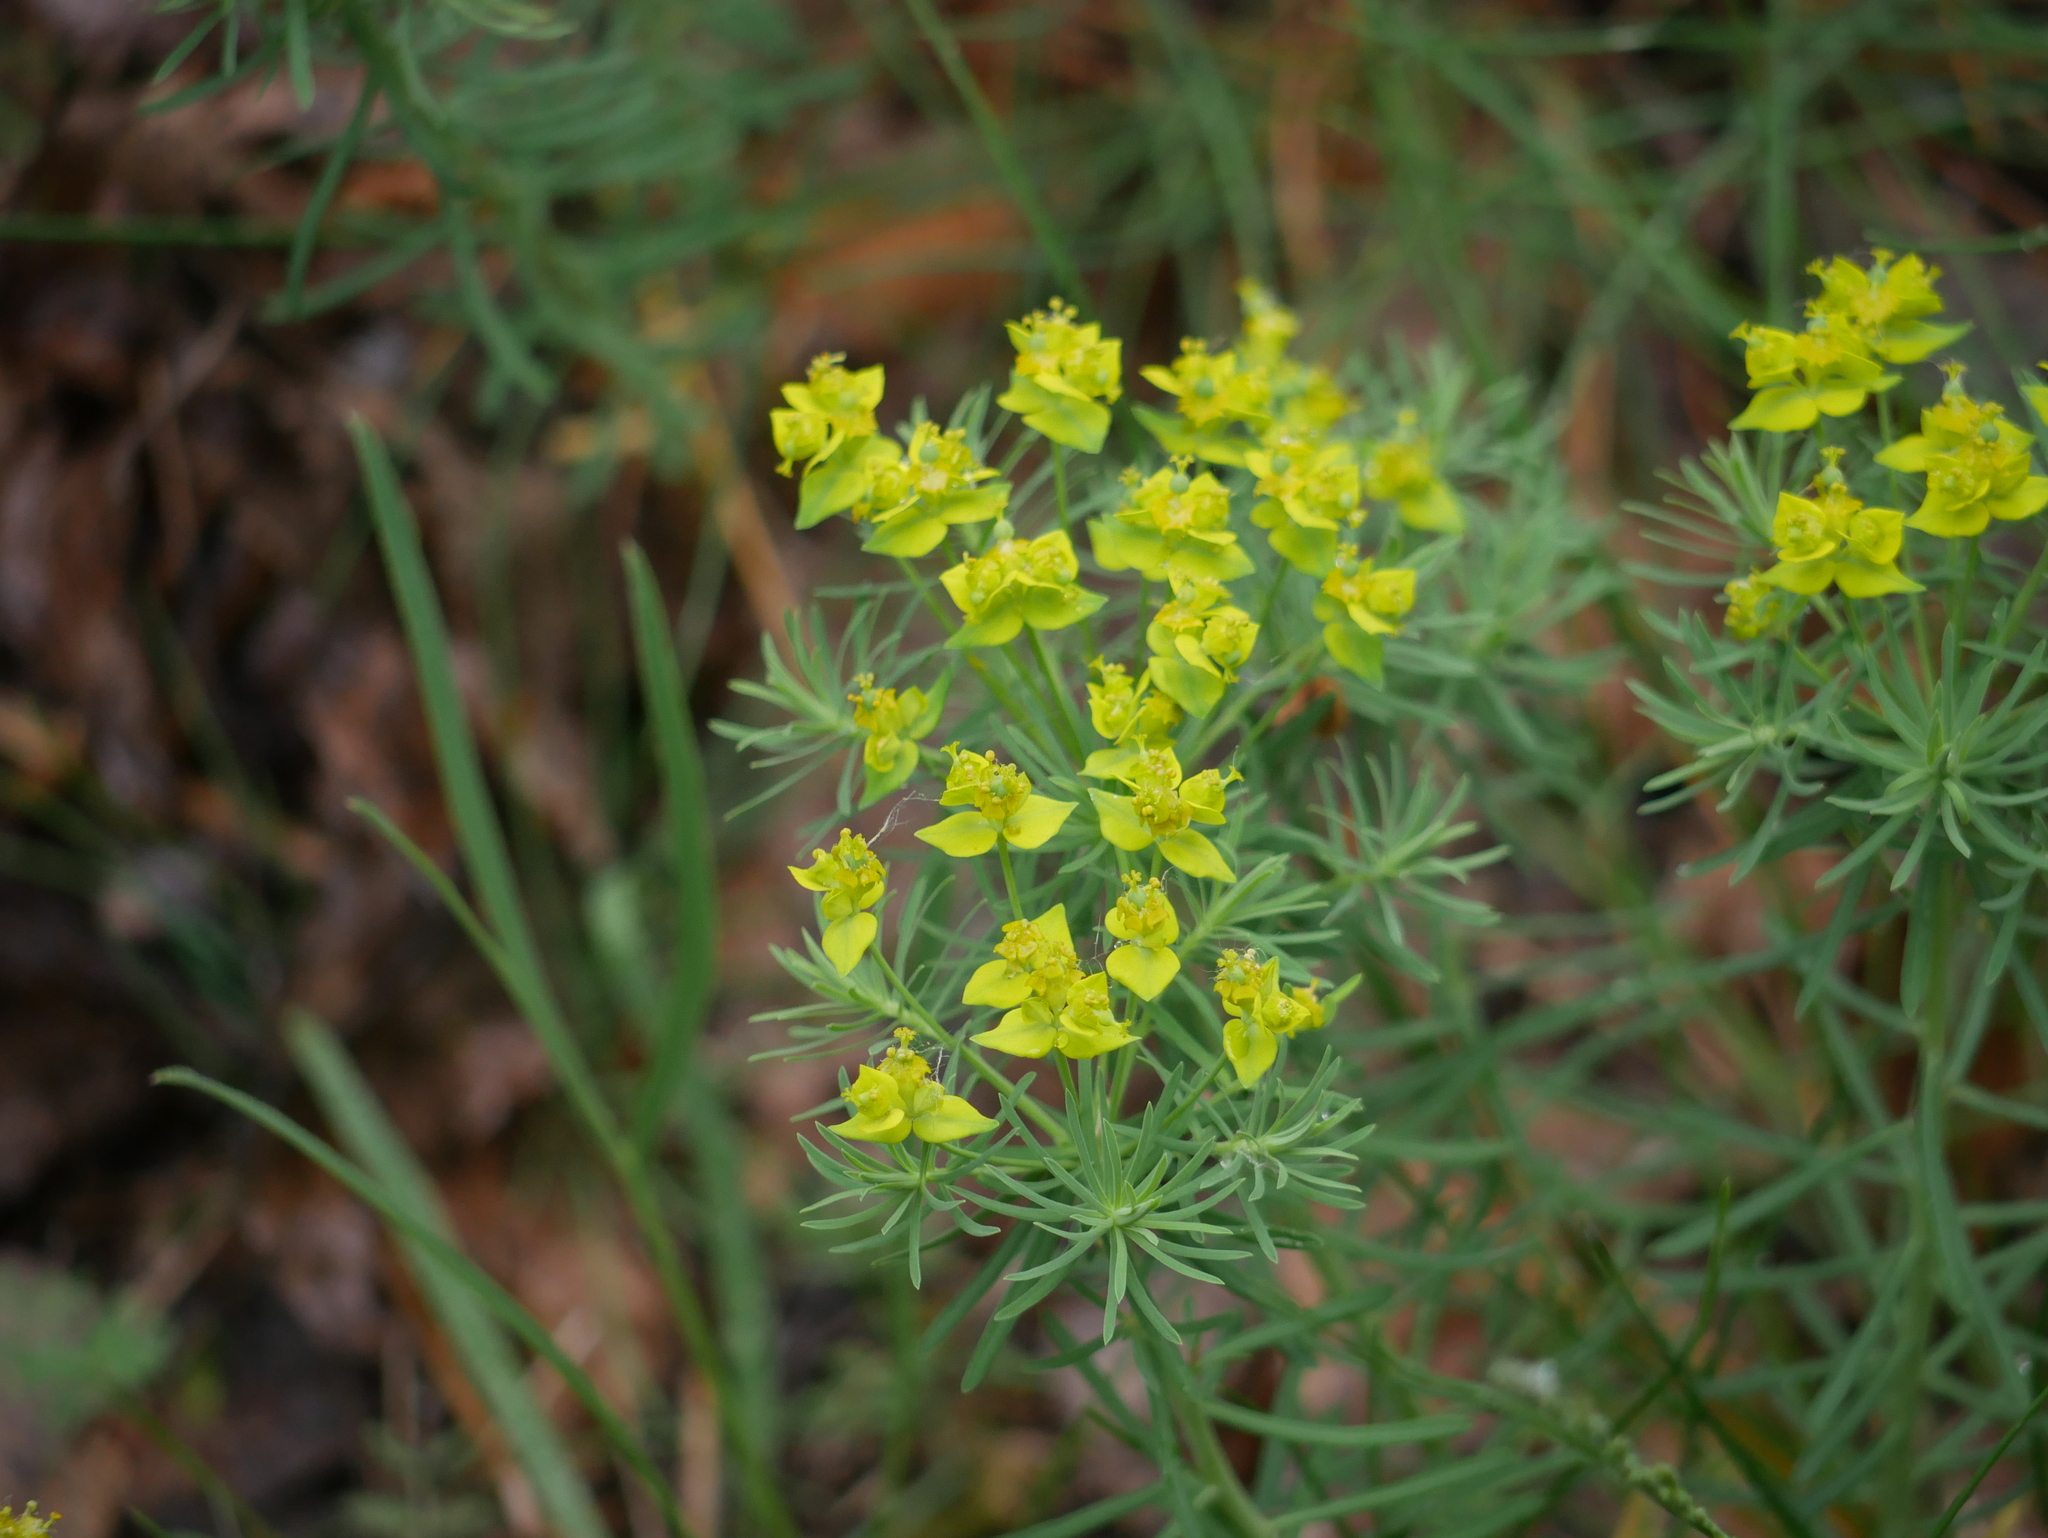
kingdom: Plantae
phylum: Tracheophyta
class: Magnoliopsida
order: Malpighiales
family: Euphorbiaceae
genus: Euphorbia
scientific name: Euphorbia cyparissias
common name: Cypress spurge
